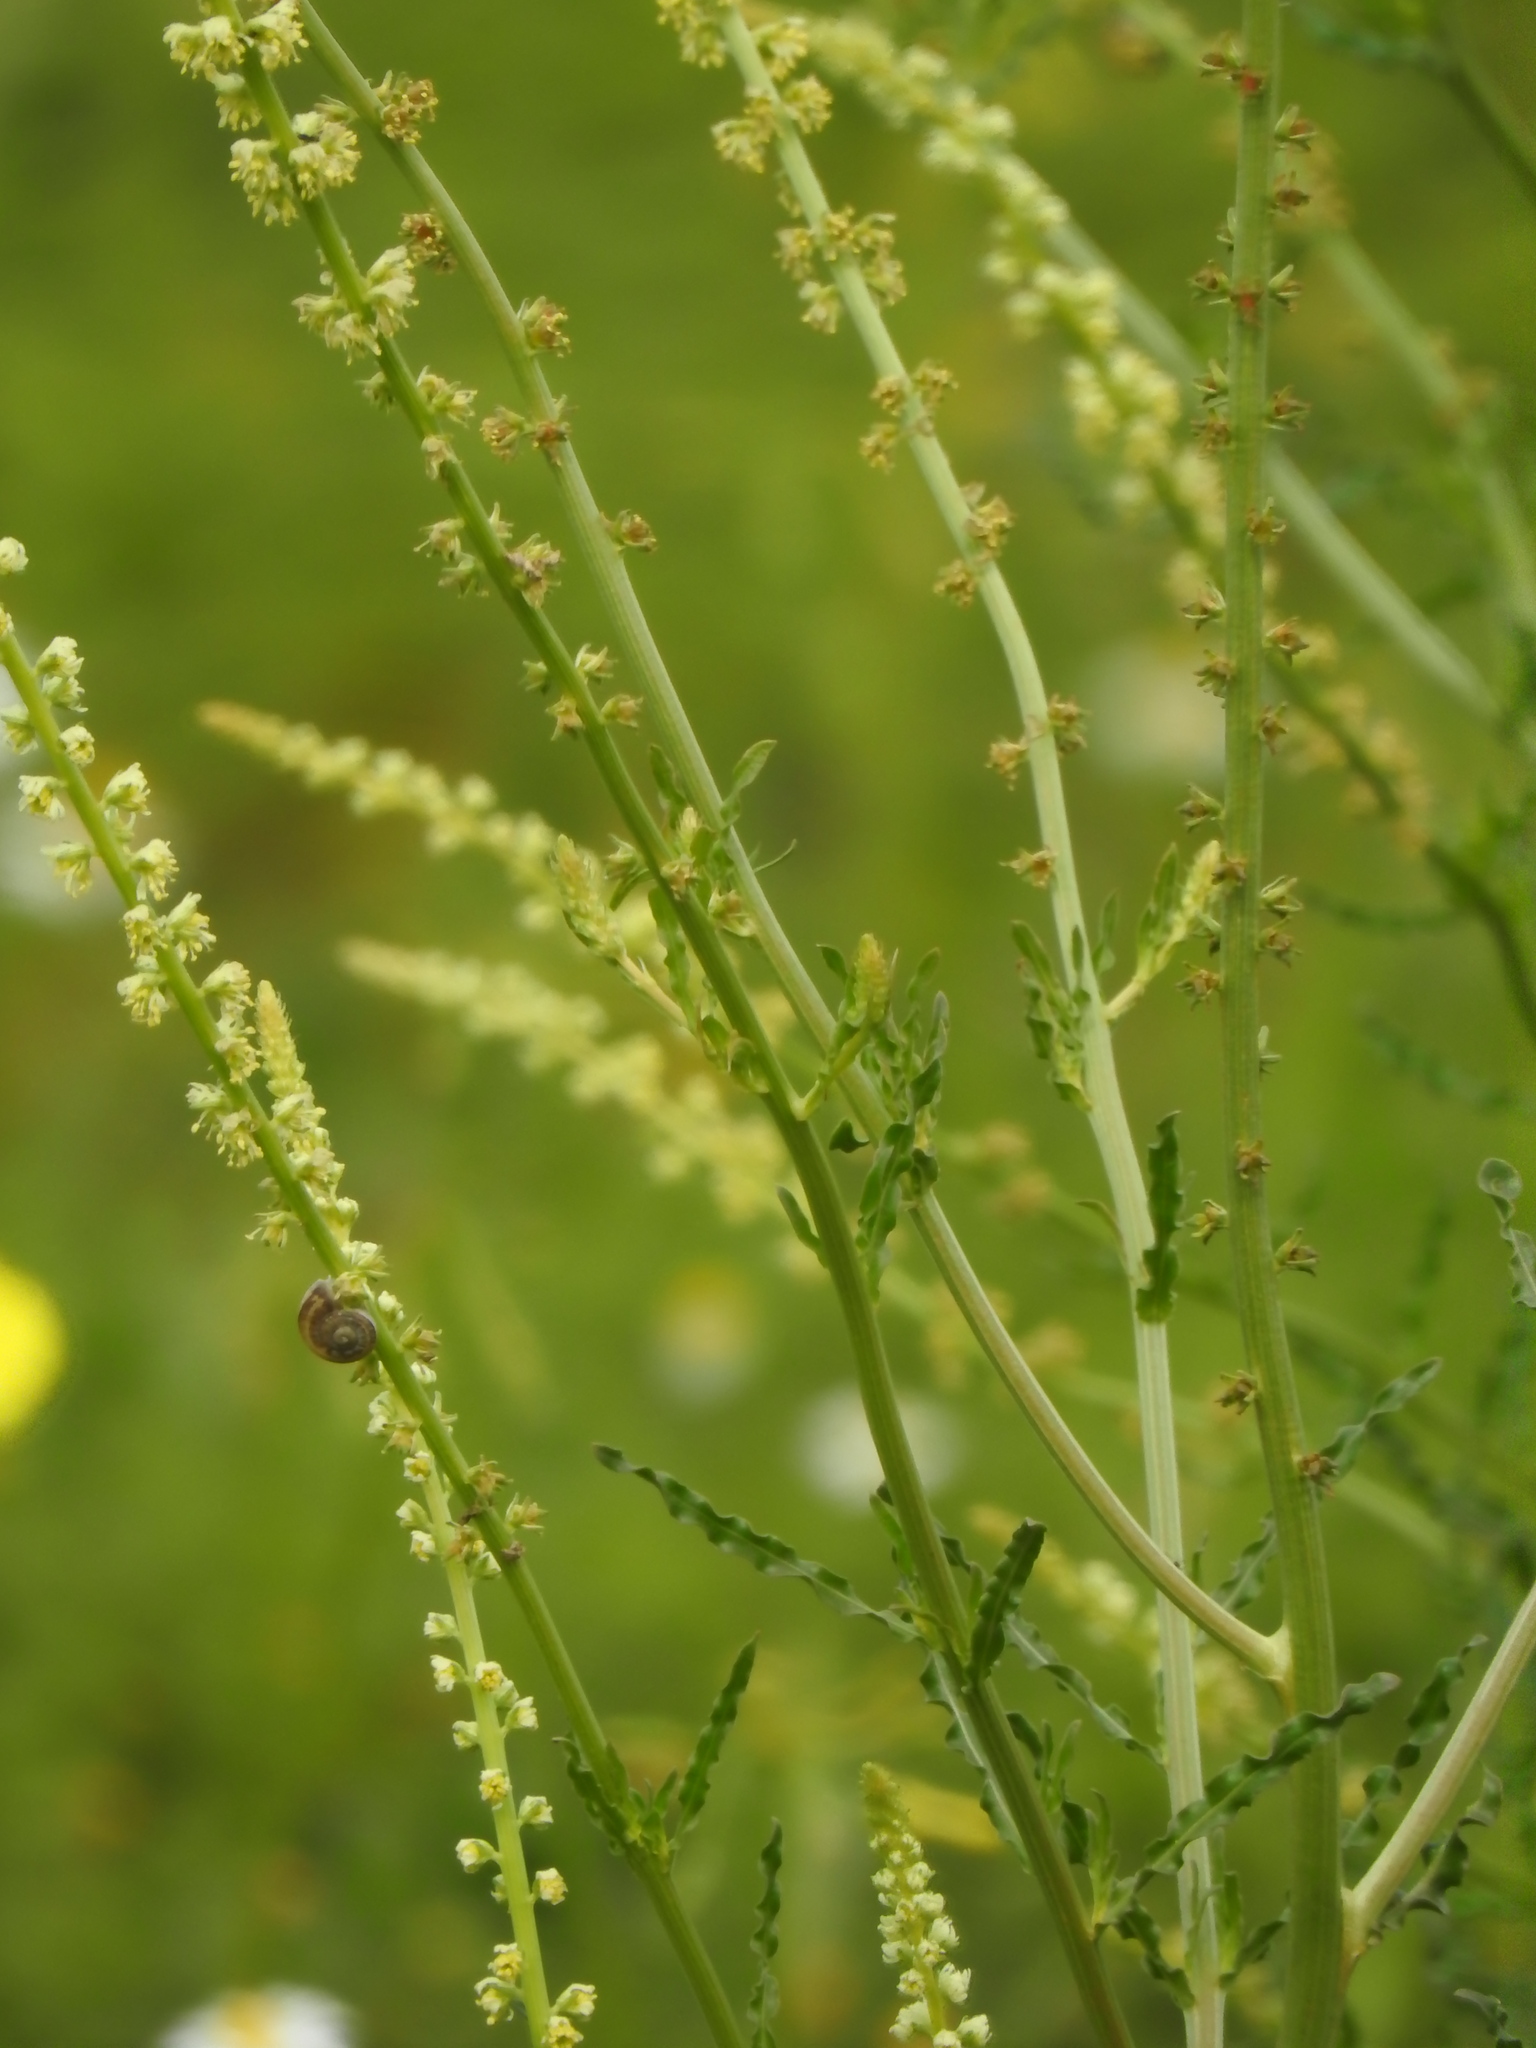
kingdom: Plantae
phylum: Tracheophyta
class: Magnoliopsida
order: Brassicales
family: Resedaceae
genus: Reseda
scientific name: Reseda luteola
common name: Weld
